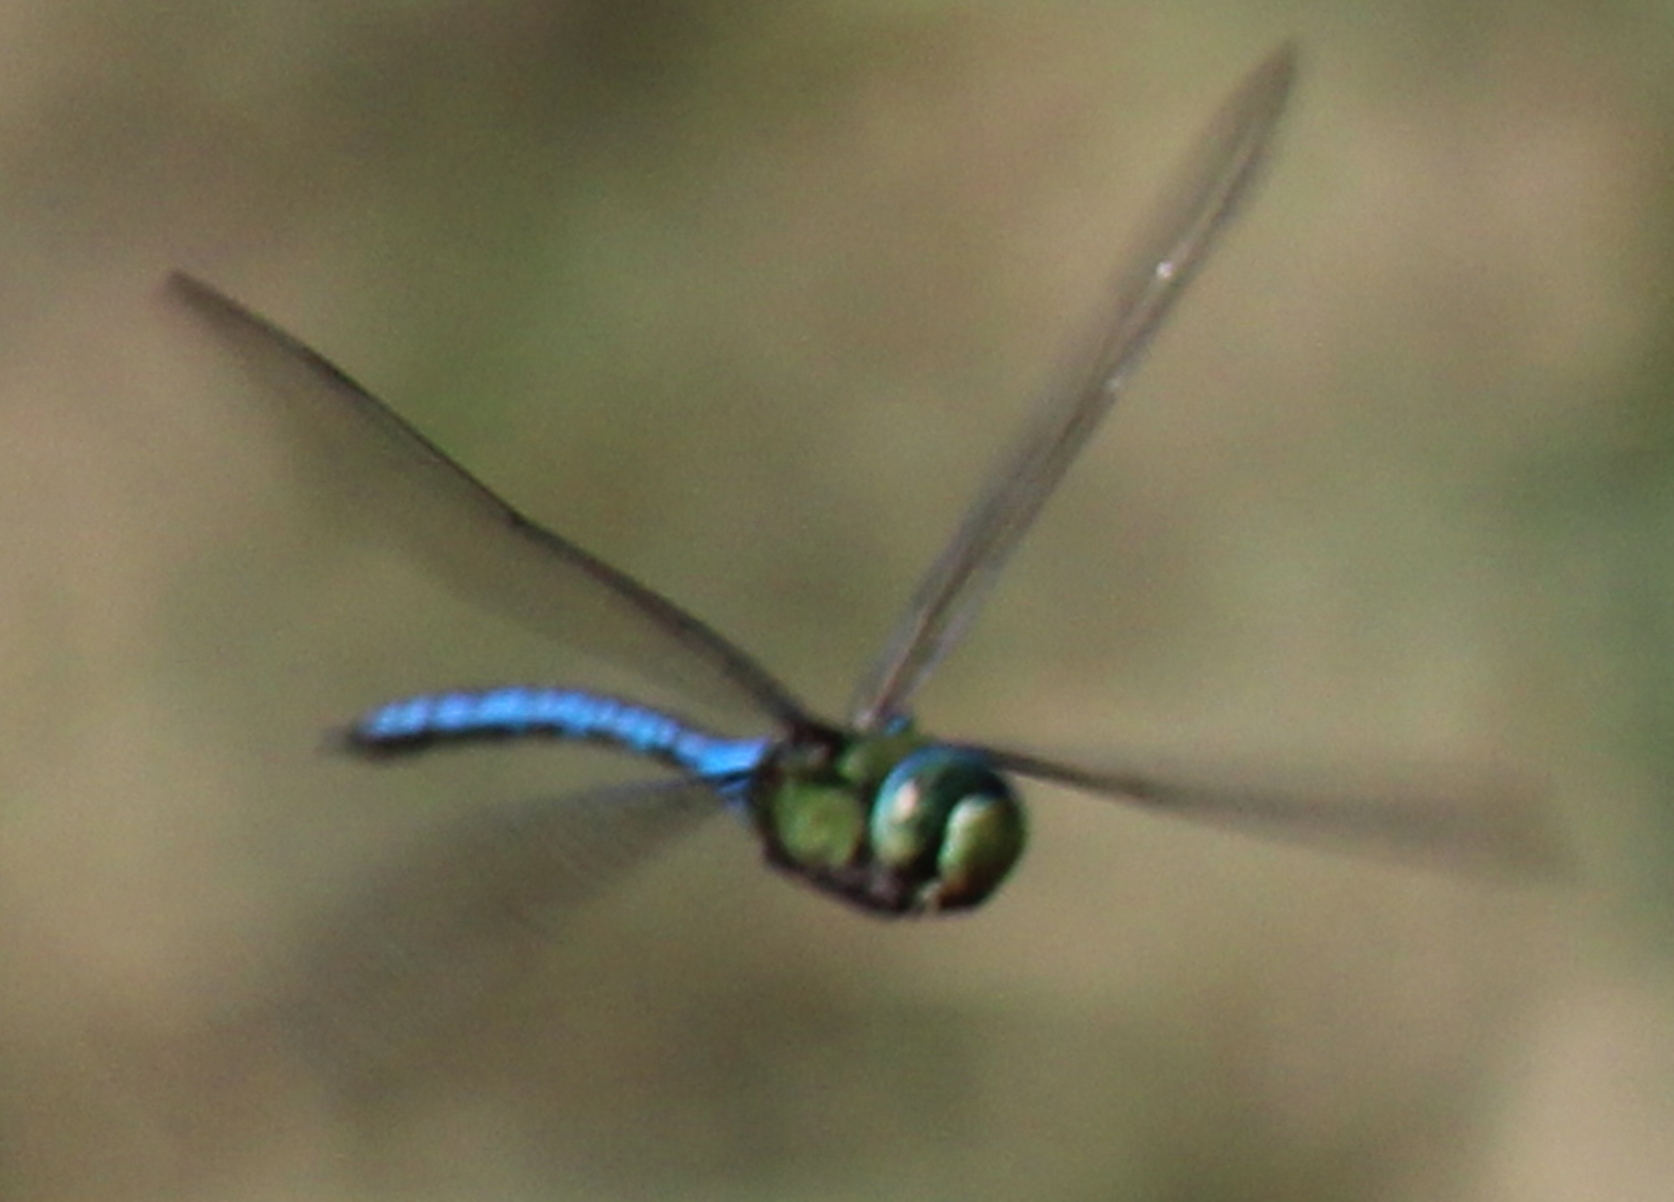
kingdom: Animalia
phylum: Arthropoda
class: Insecta
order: Odonata
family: Aeshnidae
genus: Anax
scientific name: Anax imperator
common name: Emperor dragonfly
